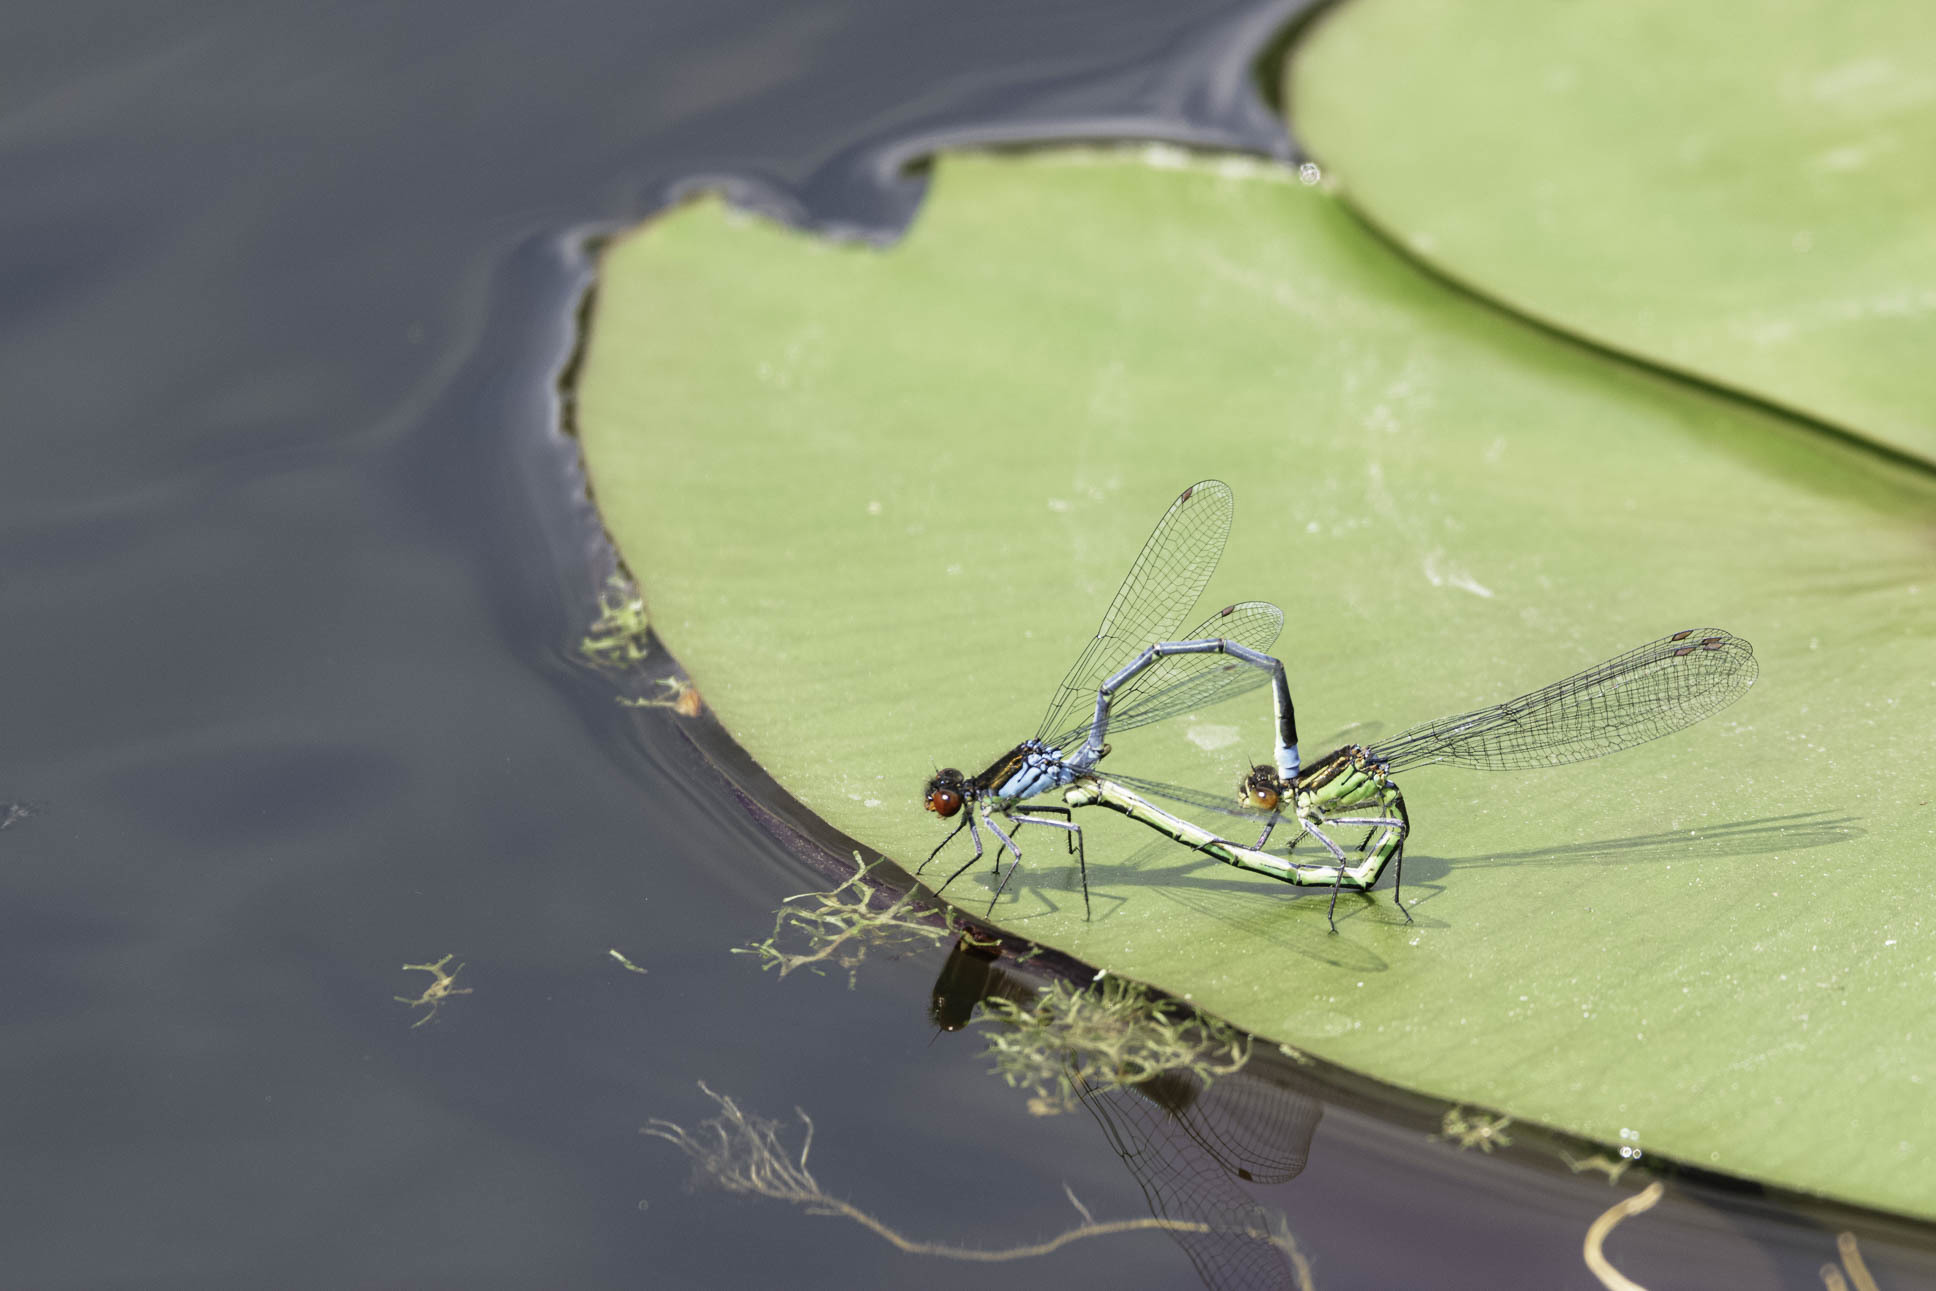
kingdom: Animalia
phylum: Arthropoda
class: Insecta
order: Odonata
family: Coenagrionidae
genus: Erythromma
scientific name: Erythromma najas
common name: Red-eyed damselfly
